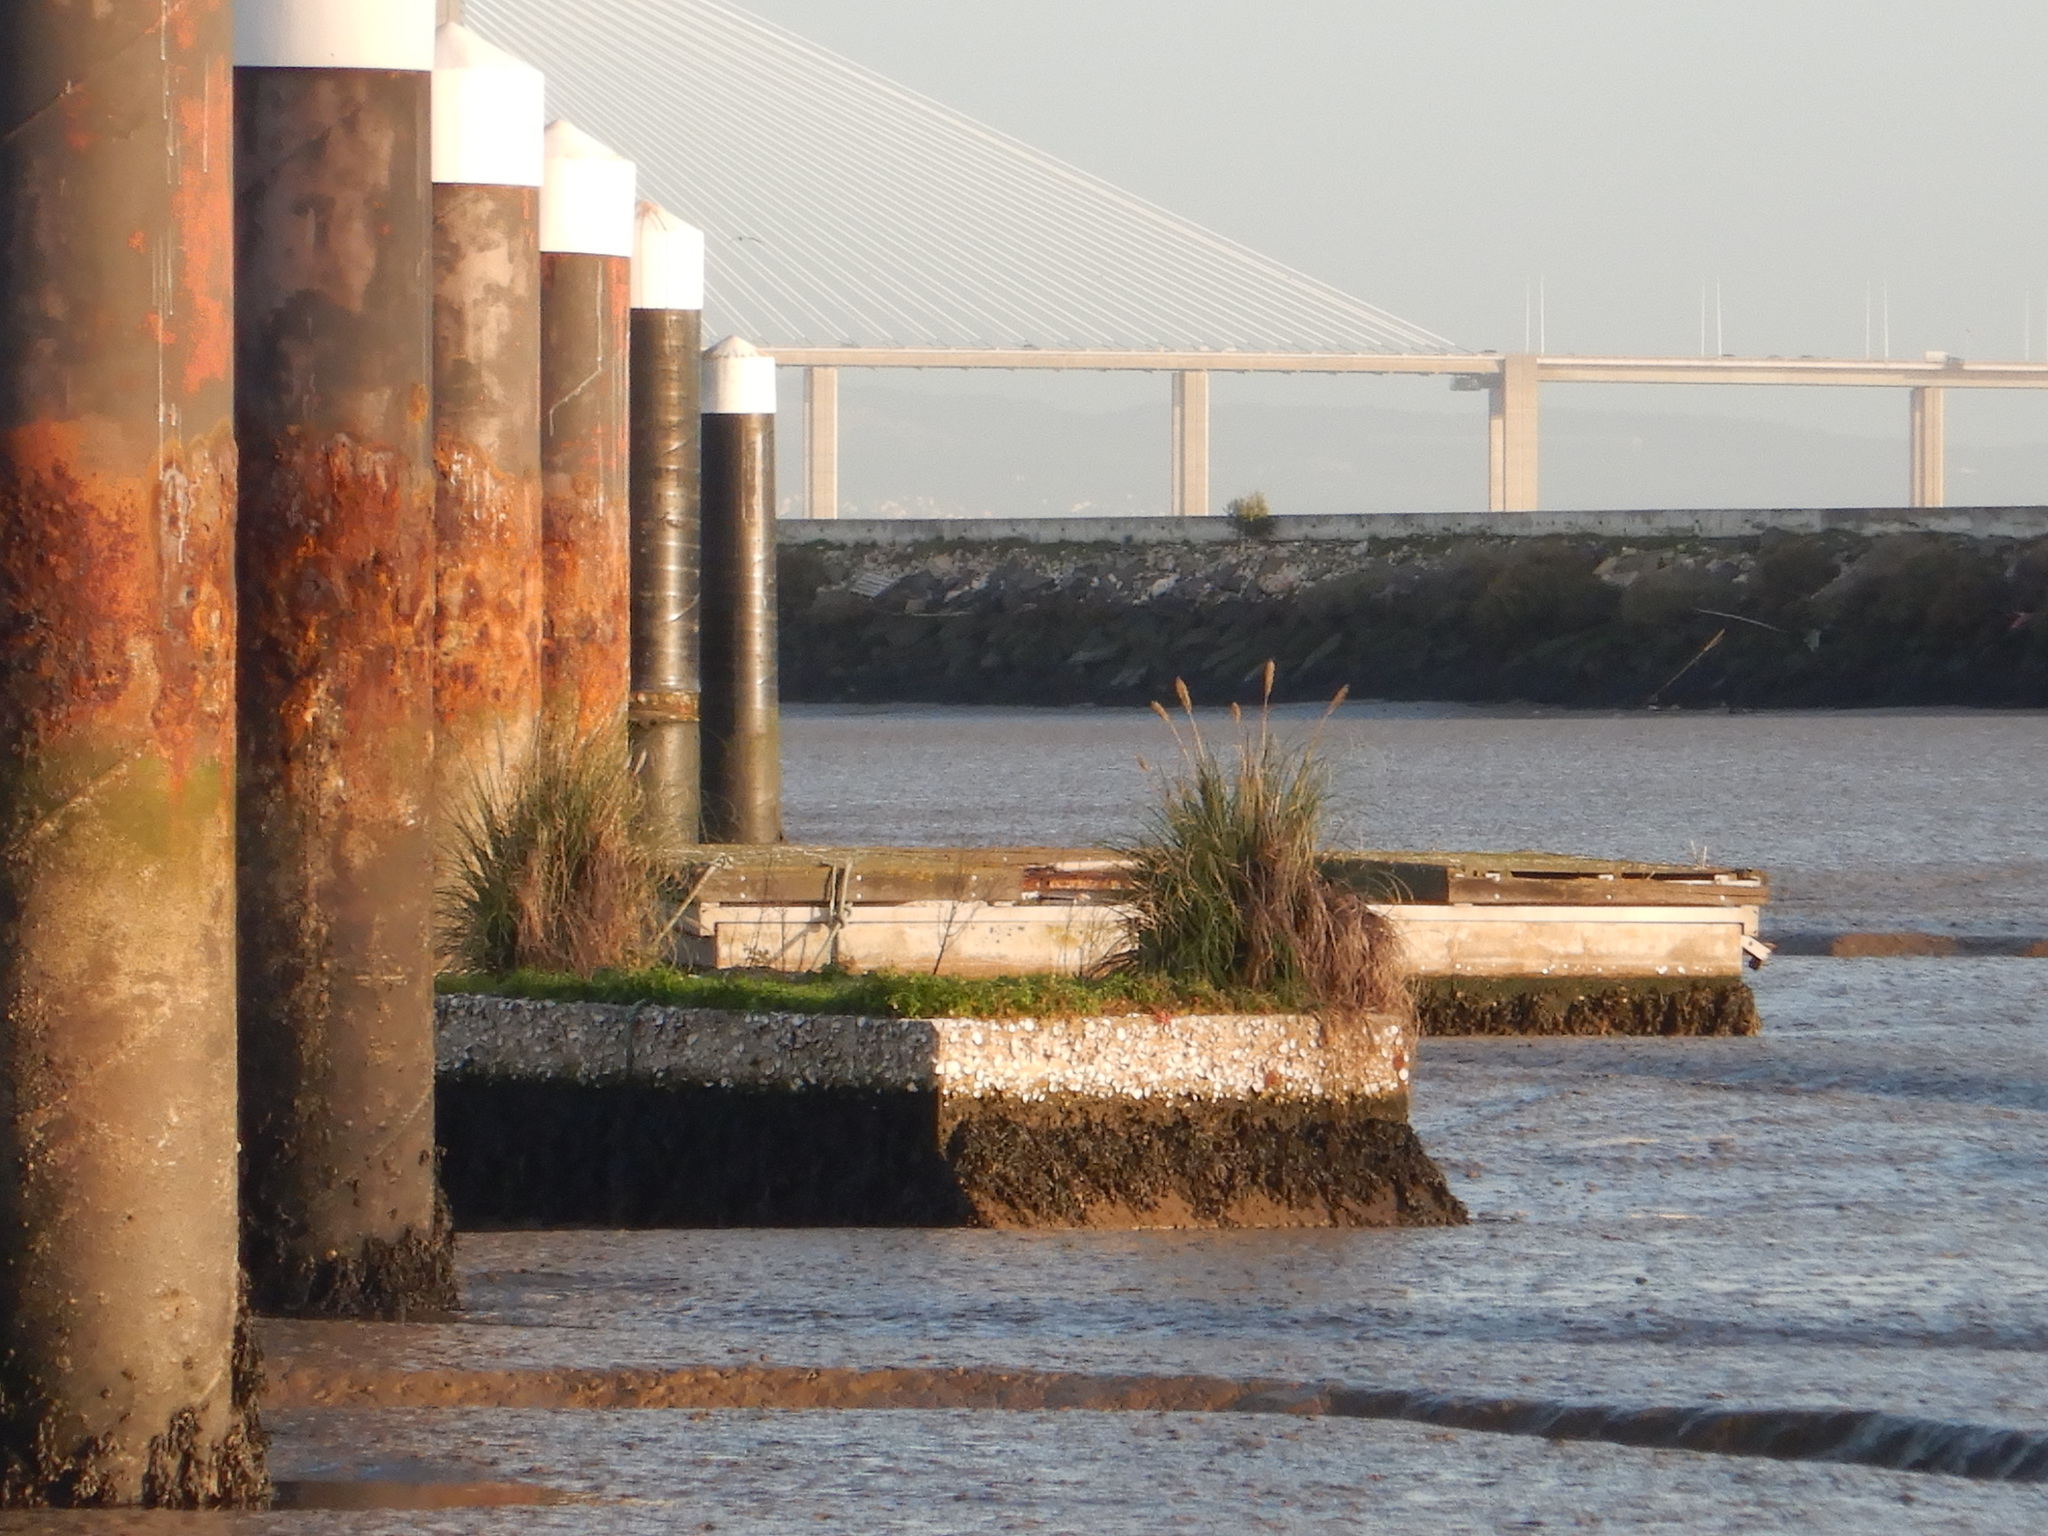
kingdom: Plantae
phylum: Tracheophyta
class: Liliopsida
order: Poales
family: Poaceae
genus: Cortaderia
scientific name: Cortaderia selloana
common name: Uruguayan pampas grass
